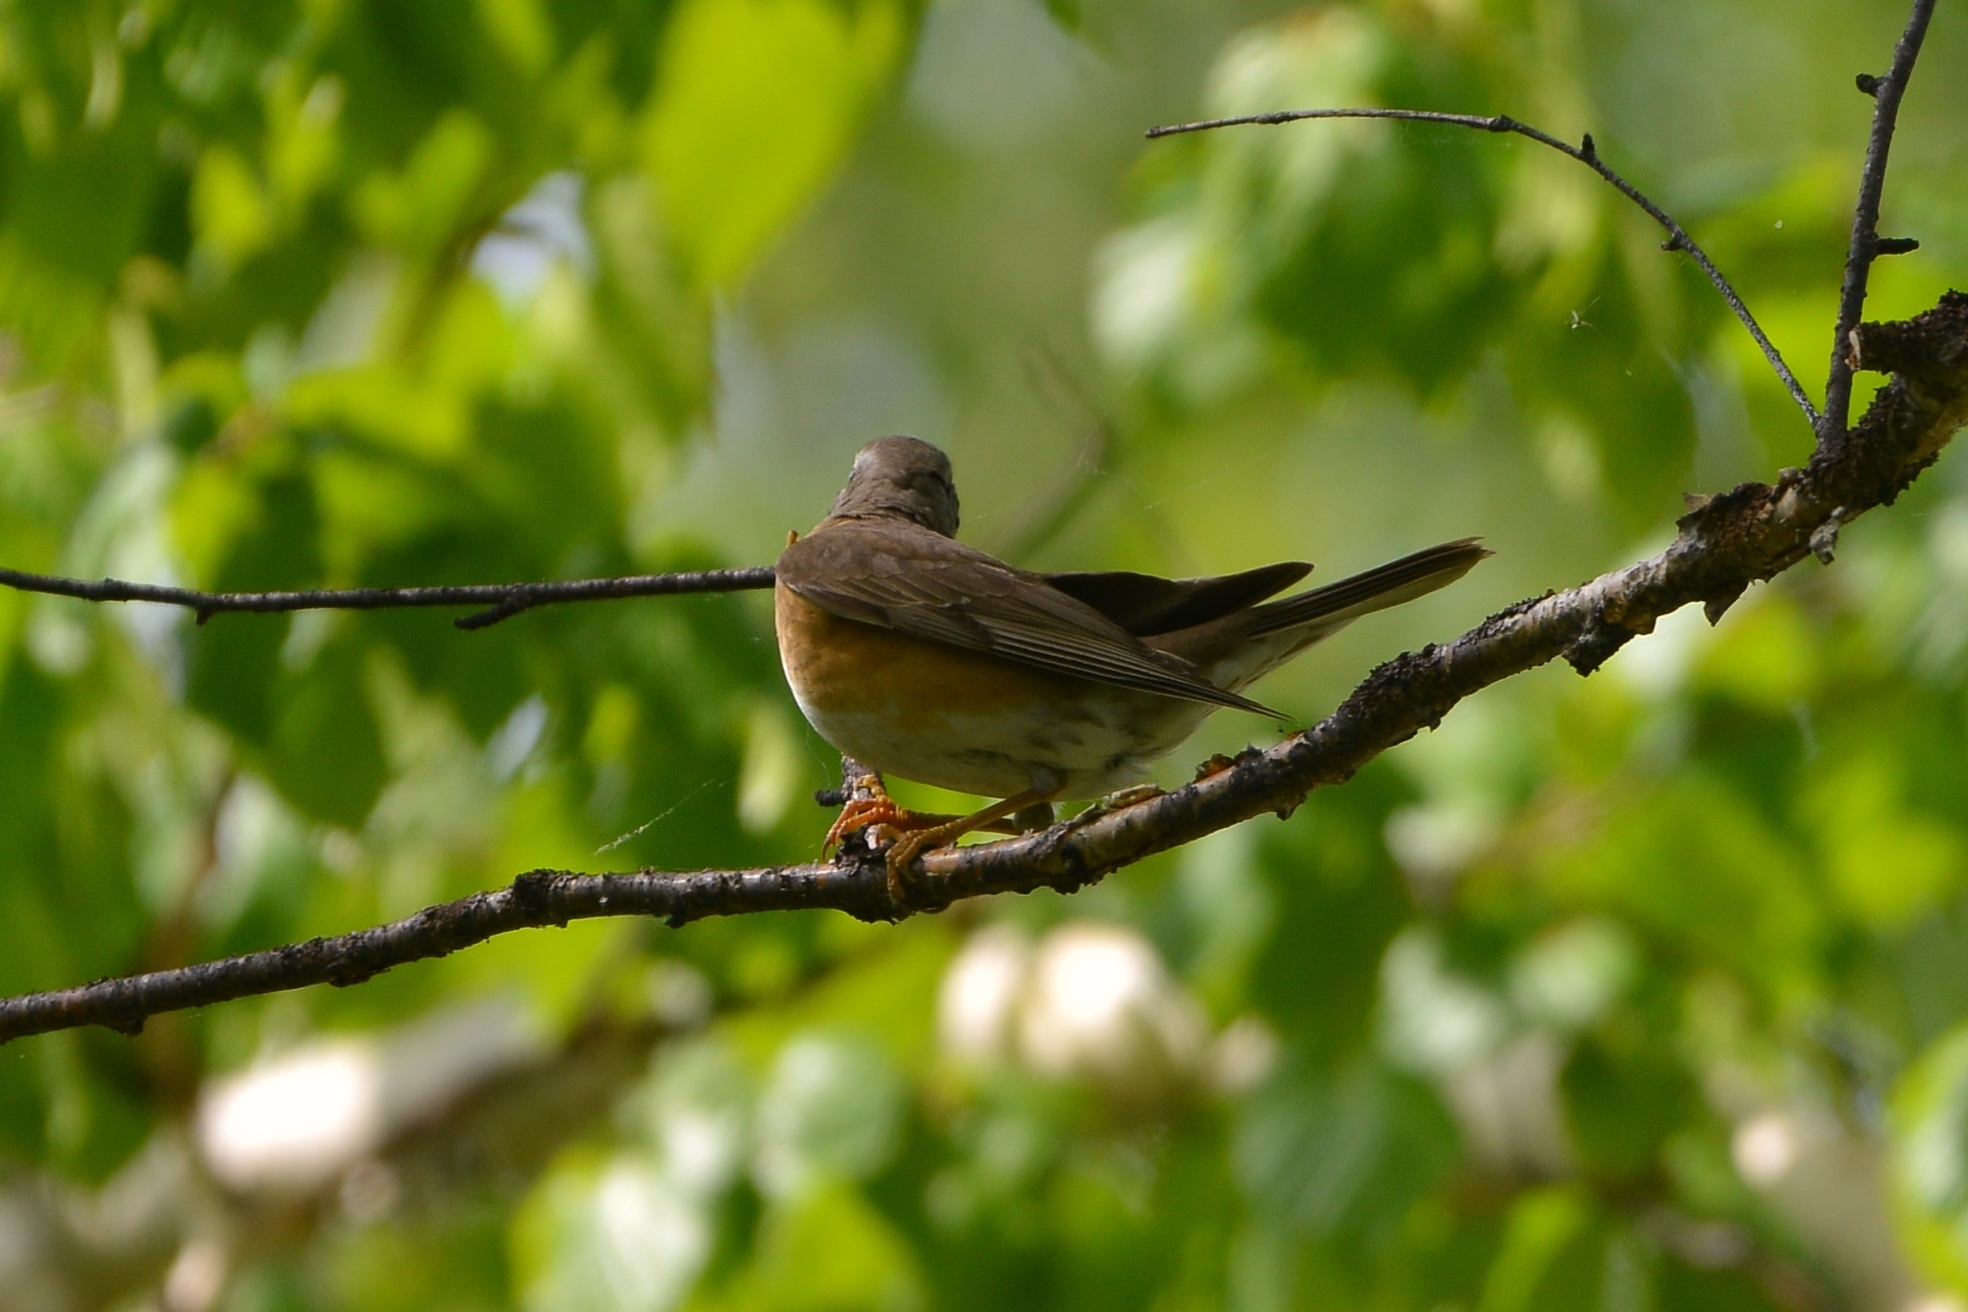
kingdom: Animalia
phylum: Chordata
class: Aves
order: Passeriformes
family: Turdidae
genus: Turdus
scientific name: Turdus obscurus
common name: Eyebrowed thrush
